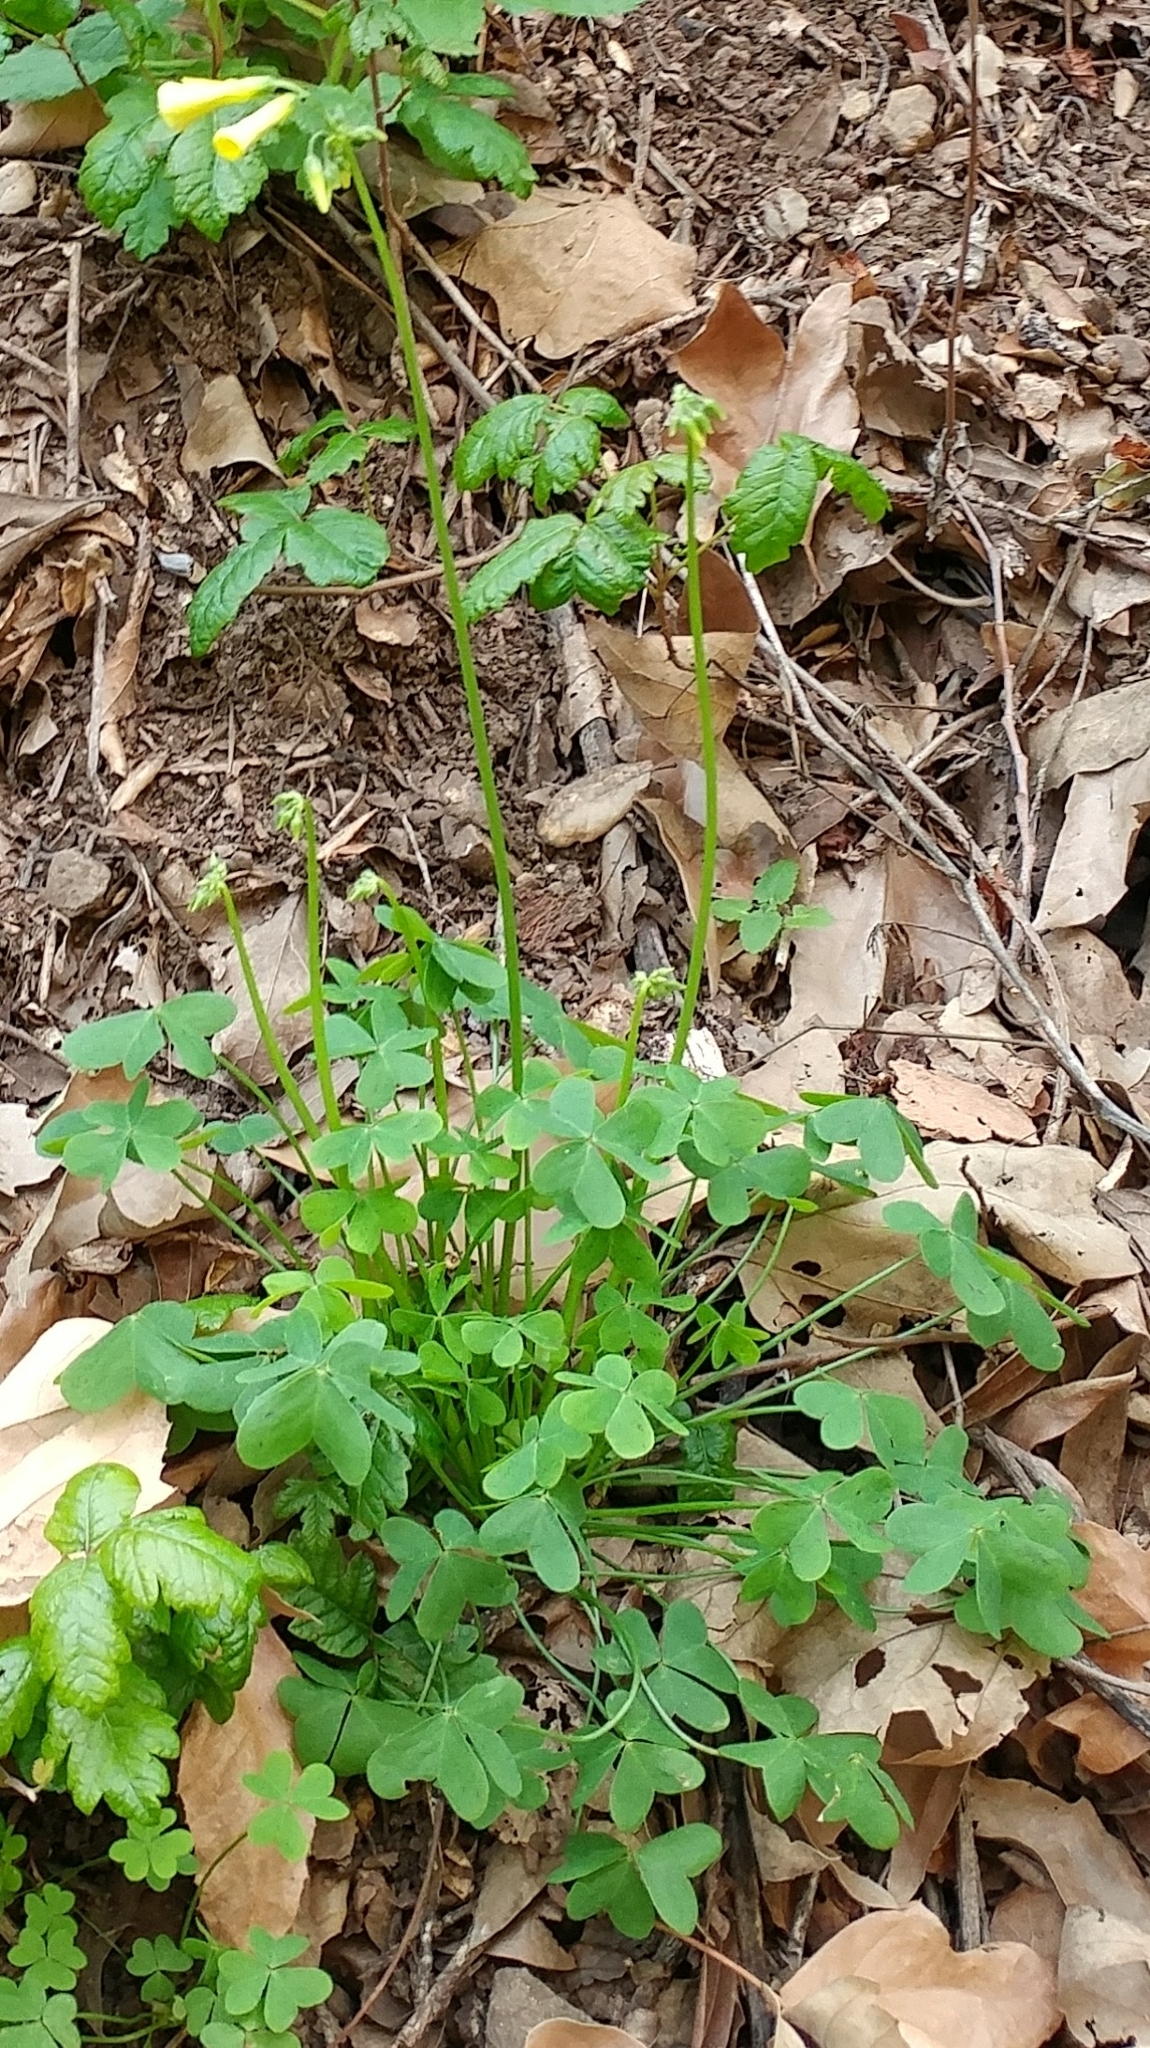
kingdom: Plantae
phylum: Tracheophyta
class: Magnoliopsida
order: Oxalidales
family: Oxalidaceae
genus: Oxalis
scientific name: Oxalis pes-caprae
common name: Bermuda-buttercup
